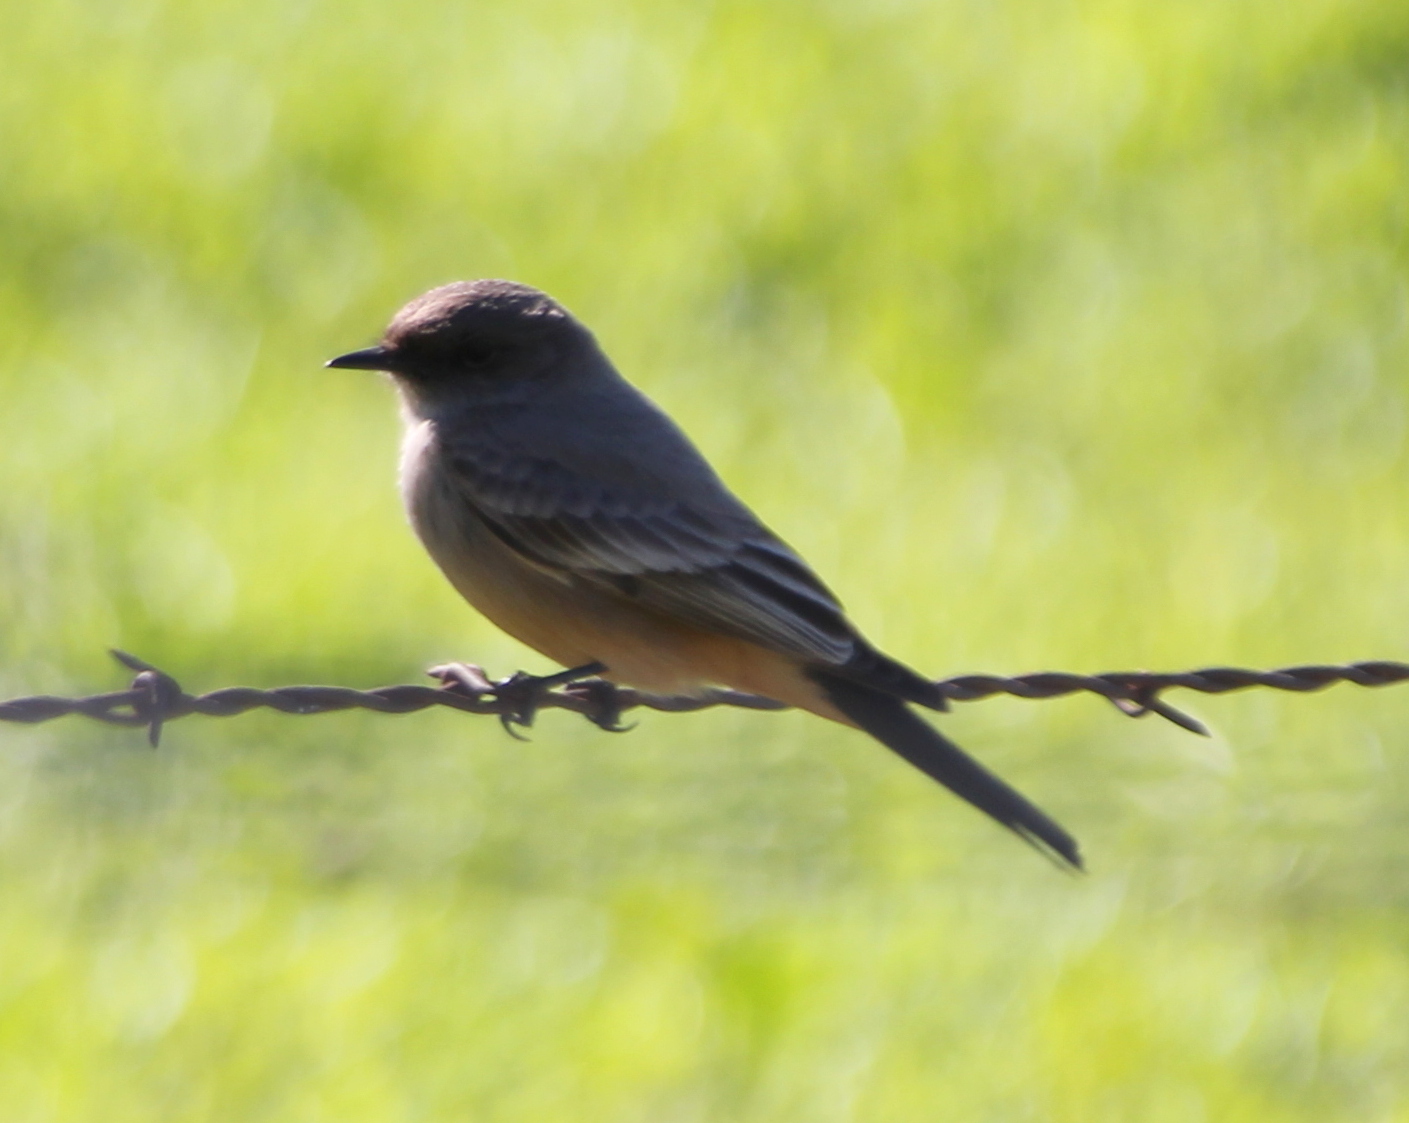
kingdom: Animalia
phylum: Chordata
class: Aves
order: Passeriformes
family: Tyrannidae
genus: Sayornis
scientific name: Sayornis saya
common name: Say's phoebe
